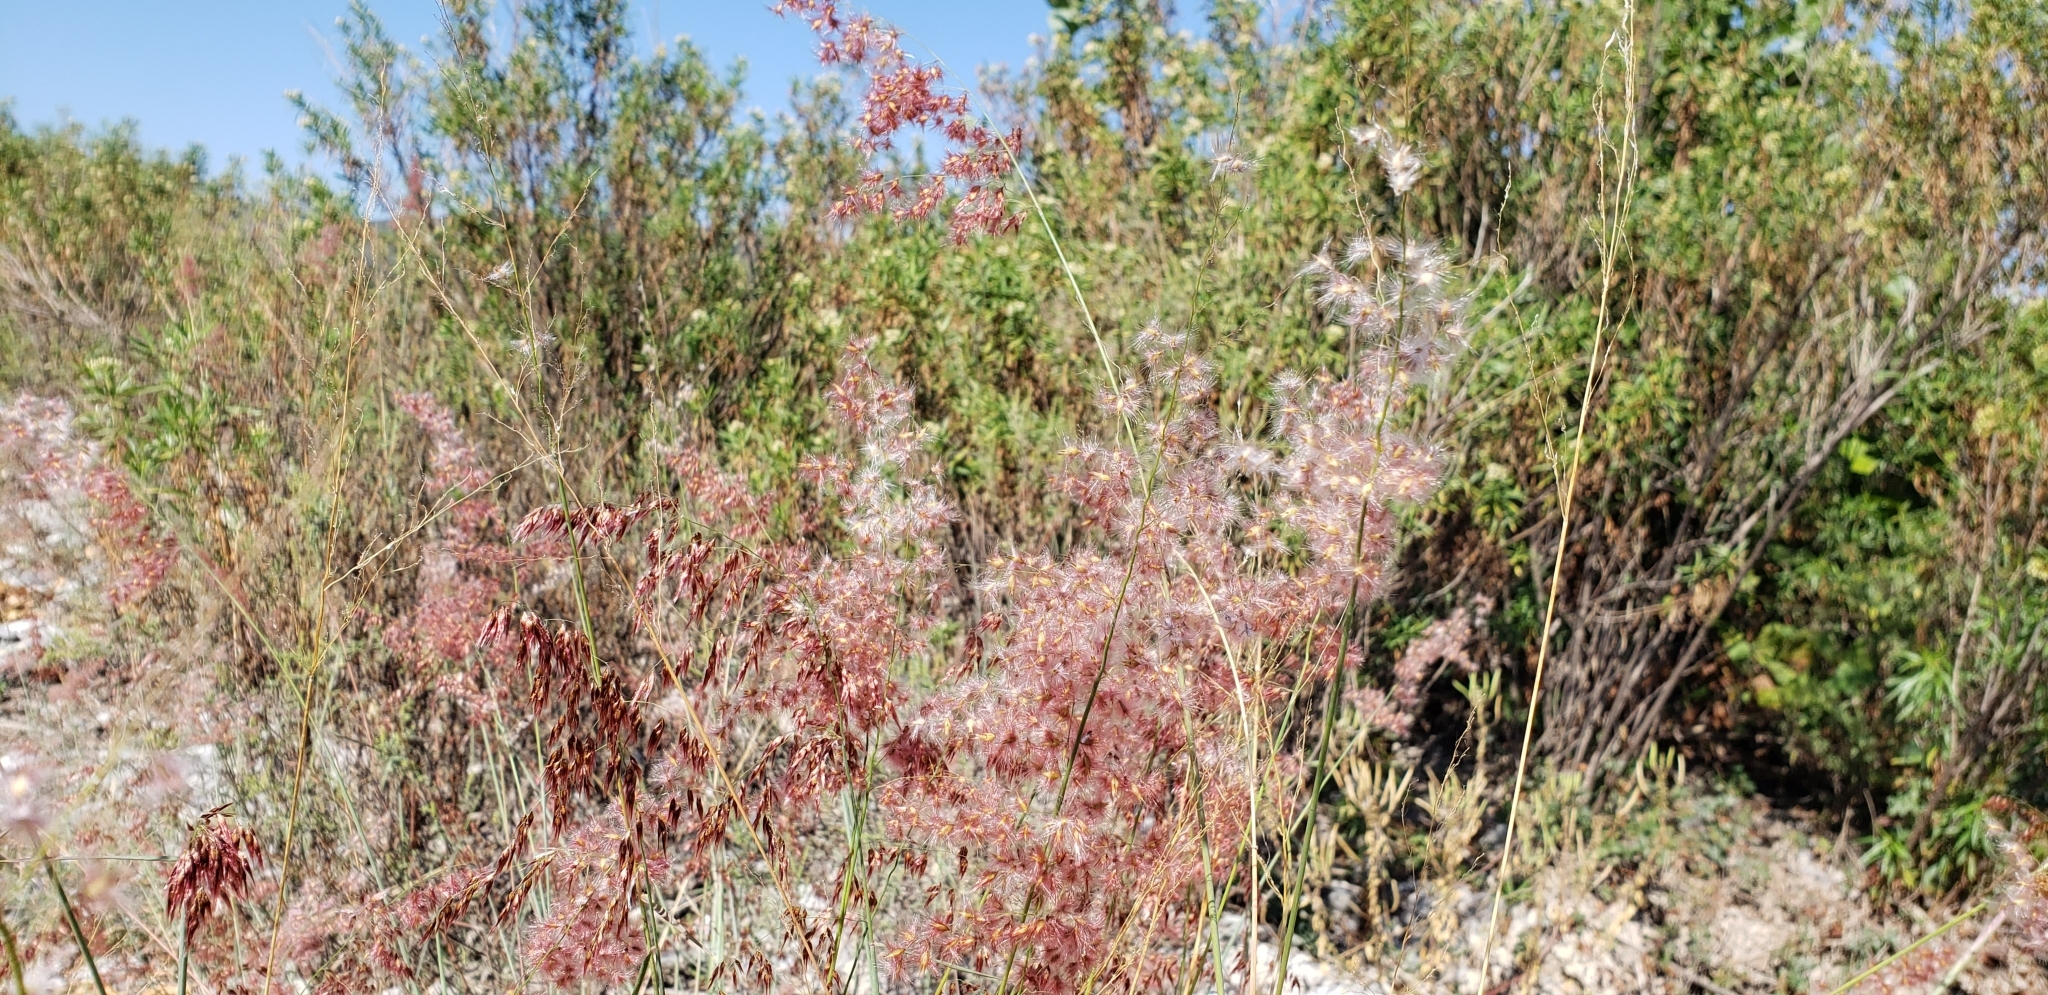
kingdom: Plantae
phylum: Tracheophyta
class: Liliopsida
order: Poales
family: Poaceae
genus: Melinis
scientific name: Melinis repens
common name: Rose natal grass
